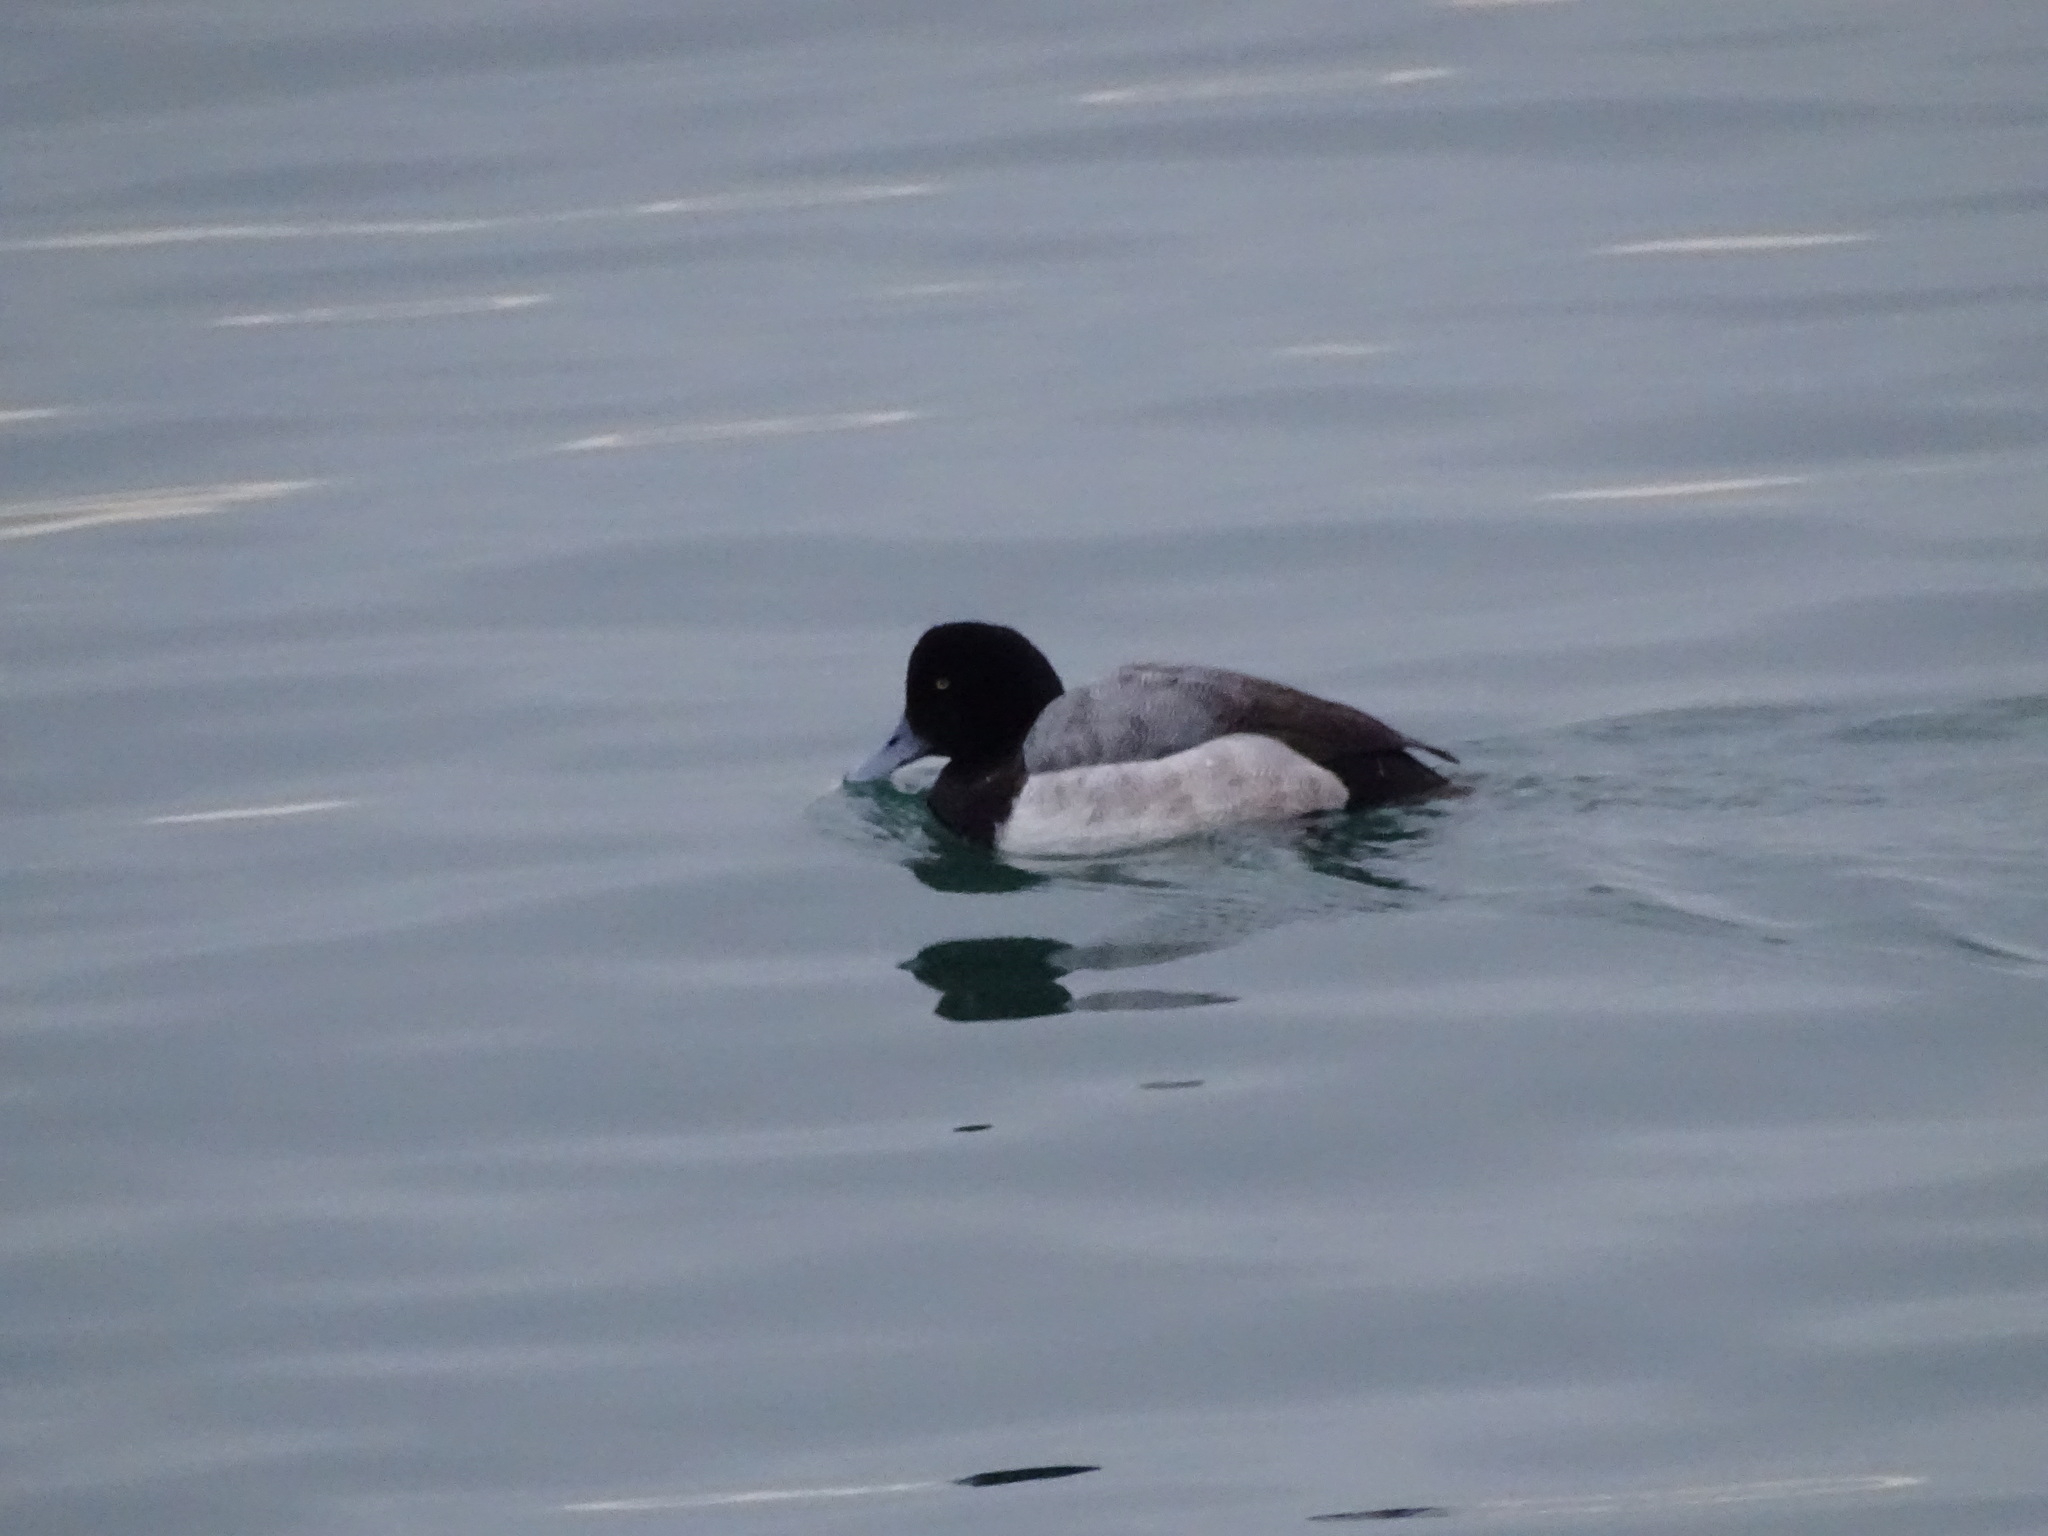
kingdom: Animalia
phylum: Chordata
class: Aves
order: Anseriformes
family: Anatidae
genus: Aythya
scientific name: Aythya marila
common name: Greater scaup
